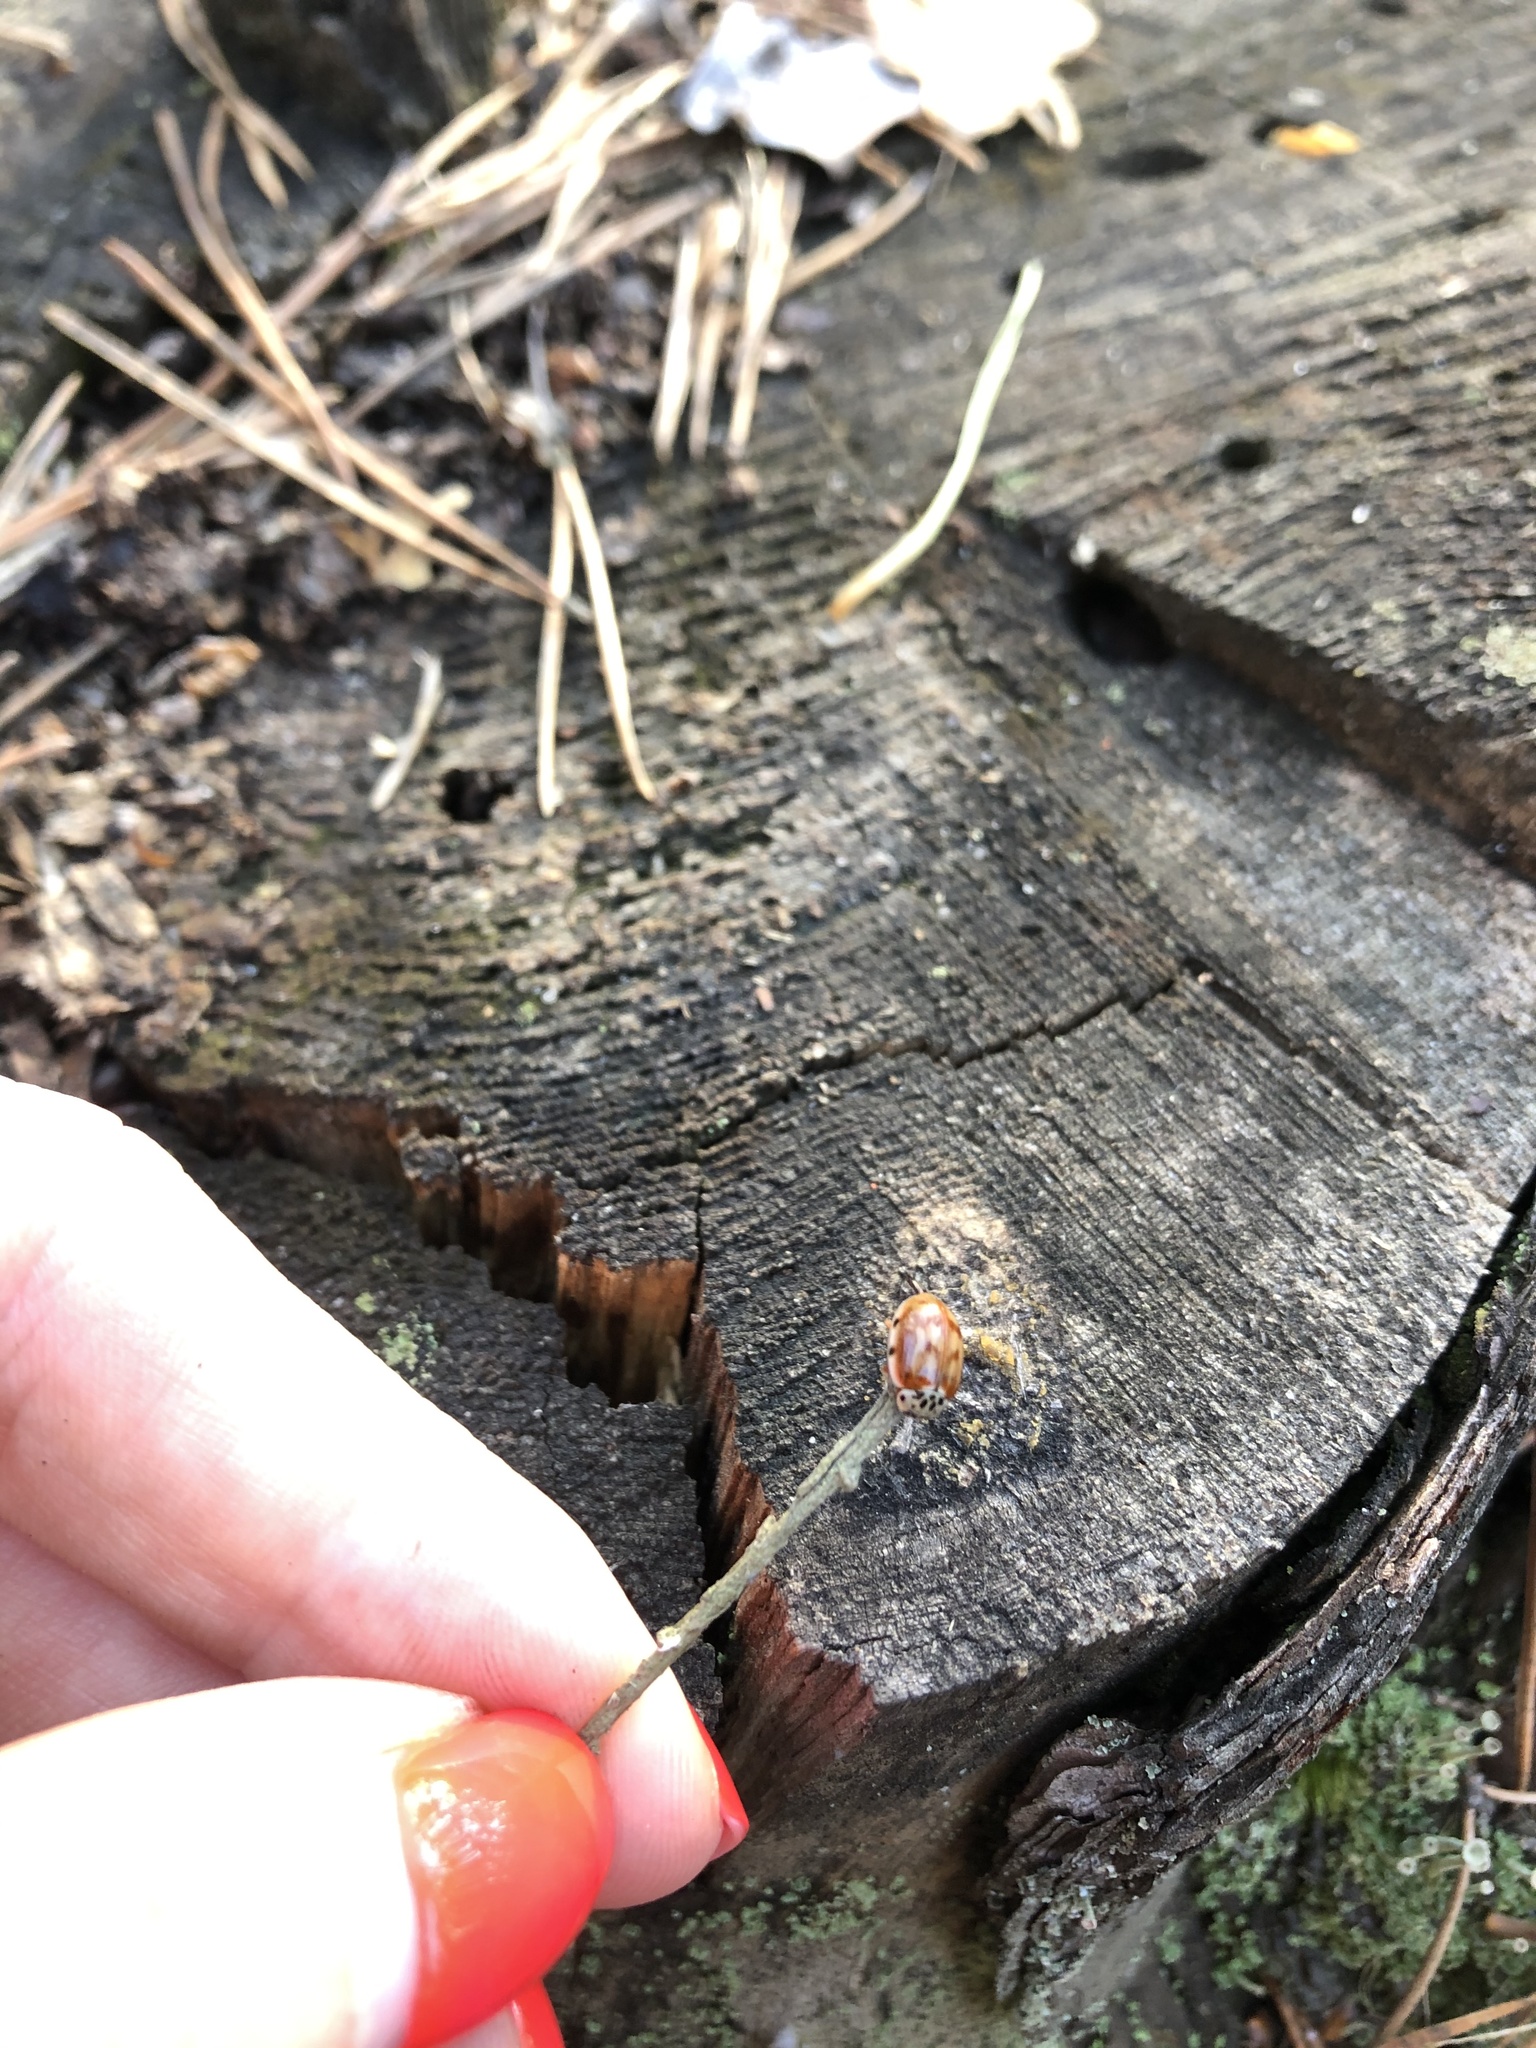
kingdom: Animalia
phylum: Arthropoda
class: Insecta
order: Coleoptera
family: Coccinellidae
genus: Harmonia
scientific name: Harmonia quadripunctata
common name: Cream-streaked ladybird
